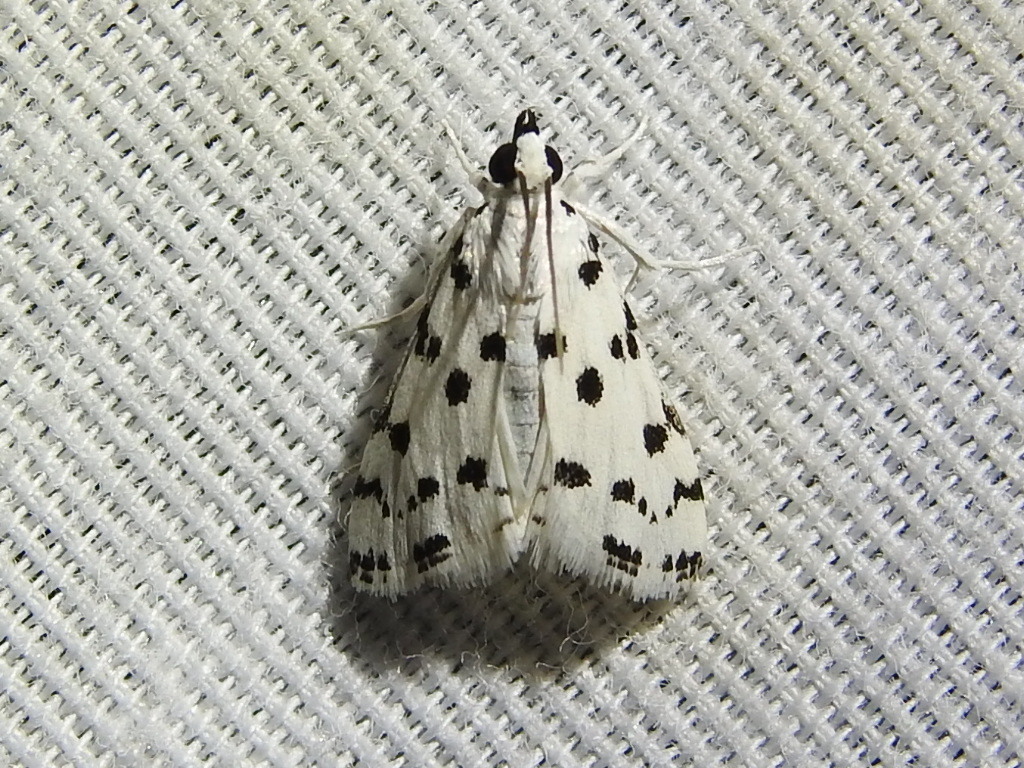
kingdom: Animalia
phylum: Arthropoda
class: Insecta
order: Lepidoptera
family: Crambidae
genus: Eustixia
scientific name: Eustixia pupula
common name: American cabbage pearl
